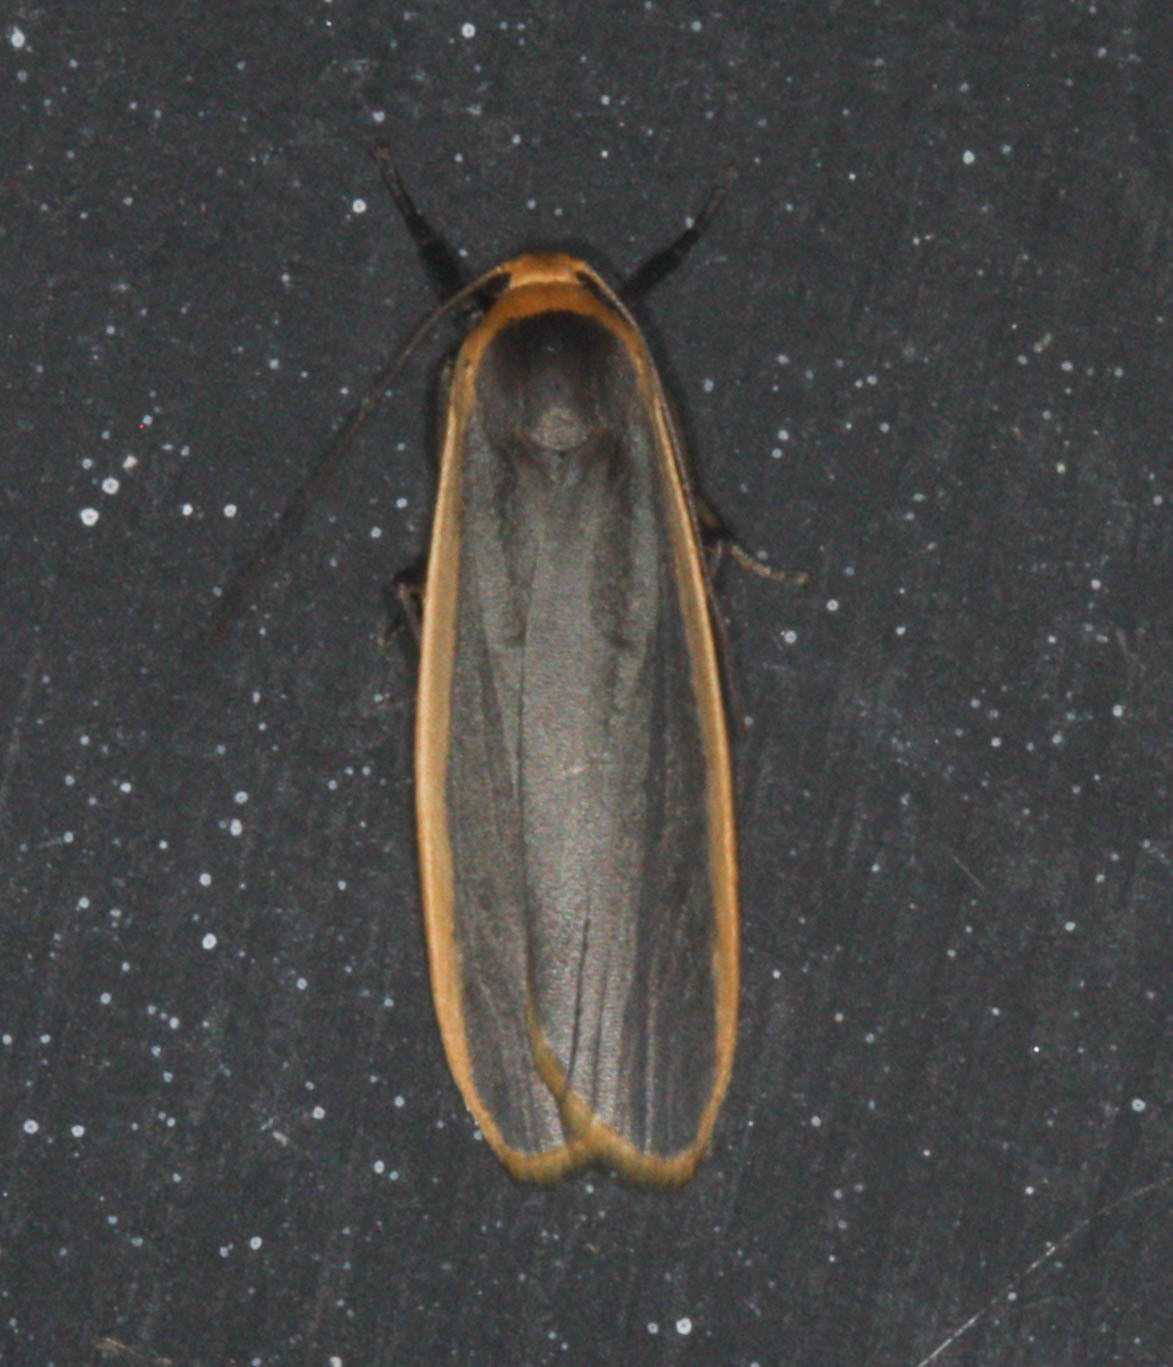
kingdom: Animalia
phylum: Arthropoda
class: Insecta
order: Lepidoptera
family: Erebidae
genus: Brunia
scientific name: Brunia antica
